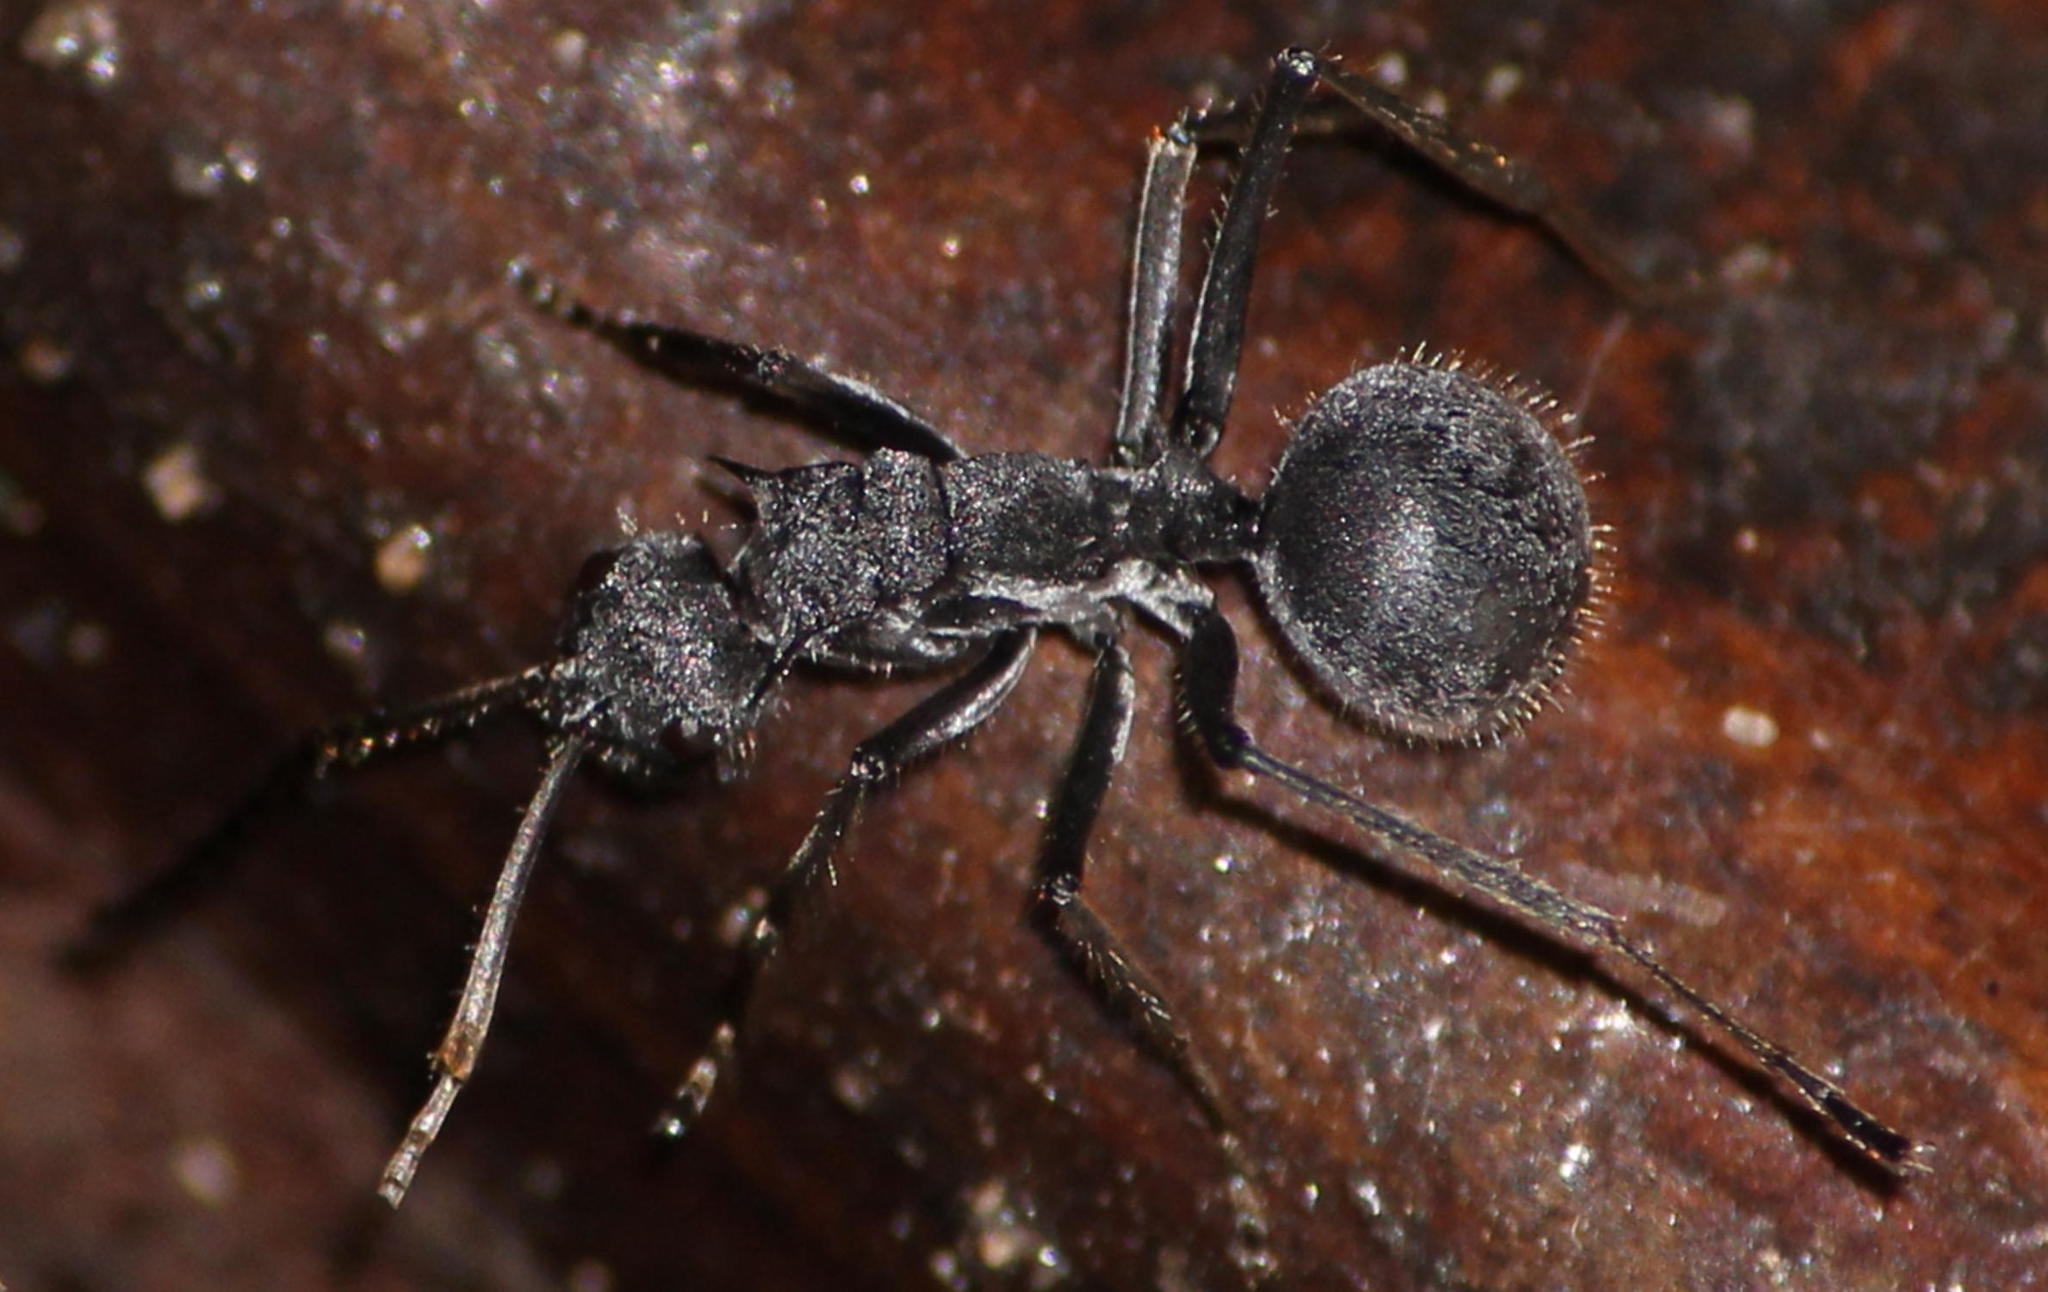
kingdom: Animalia
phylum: Arthropoda
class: Insecta
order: Hymenoptera
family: Formicidae
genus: Polyrhachis
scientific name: Polyrhachis schistacea
